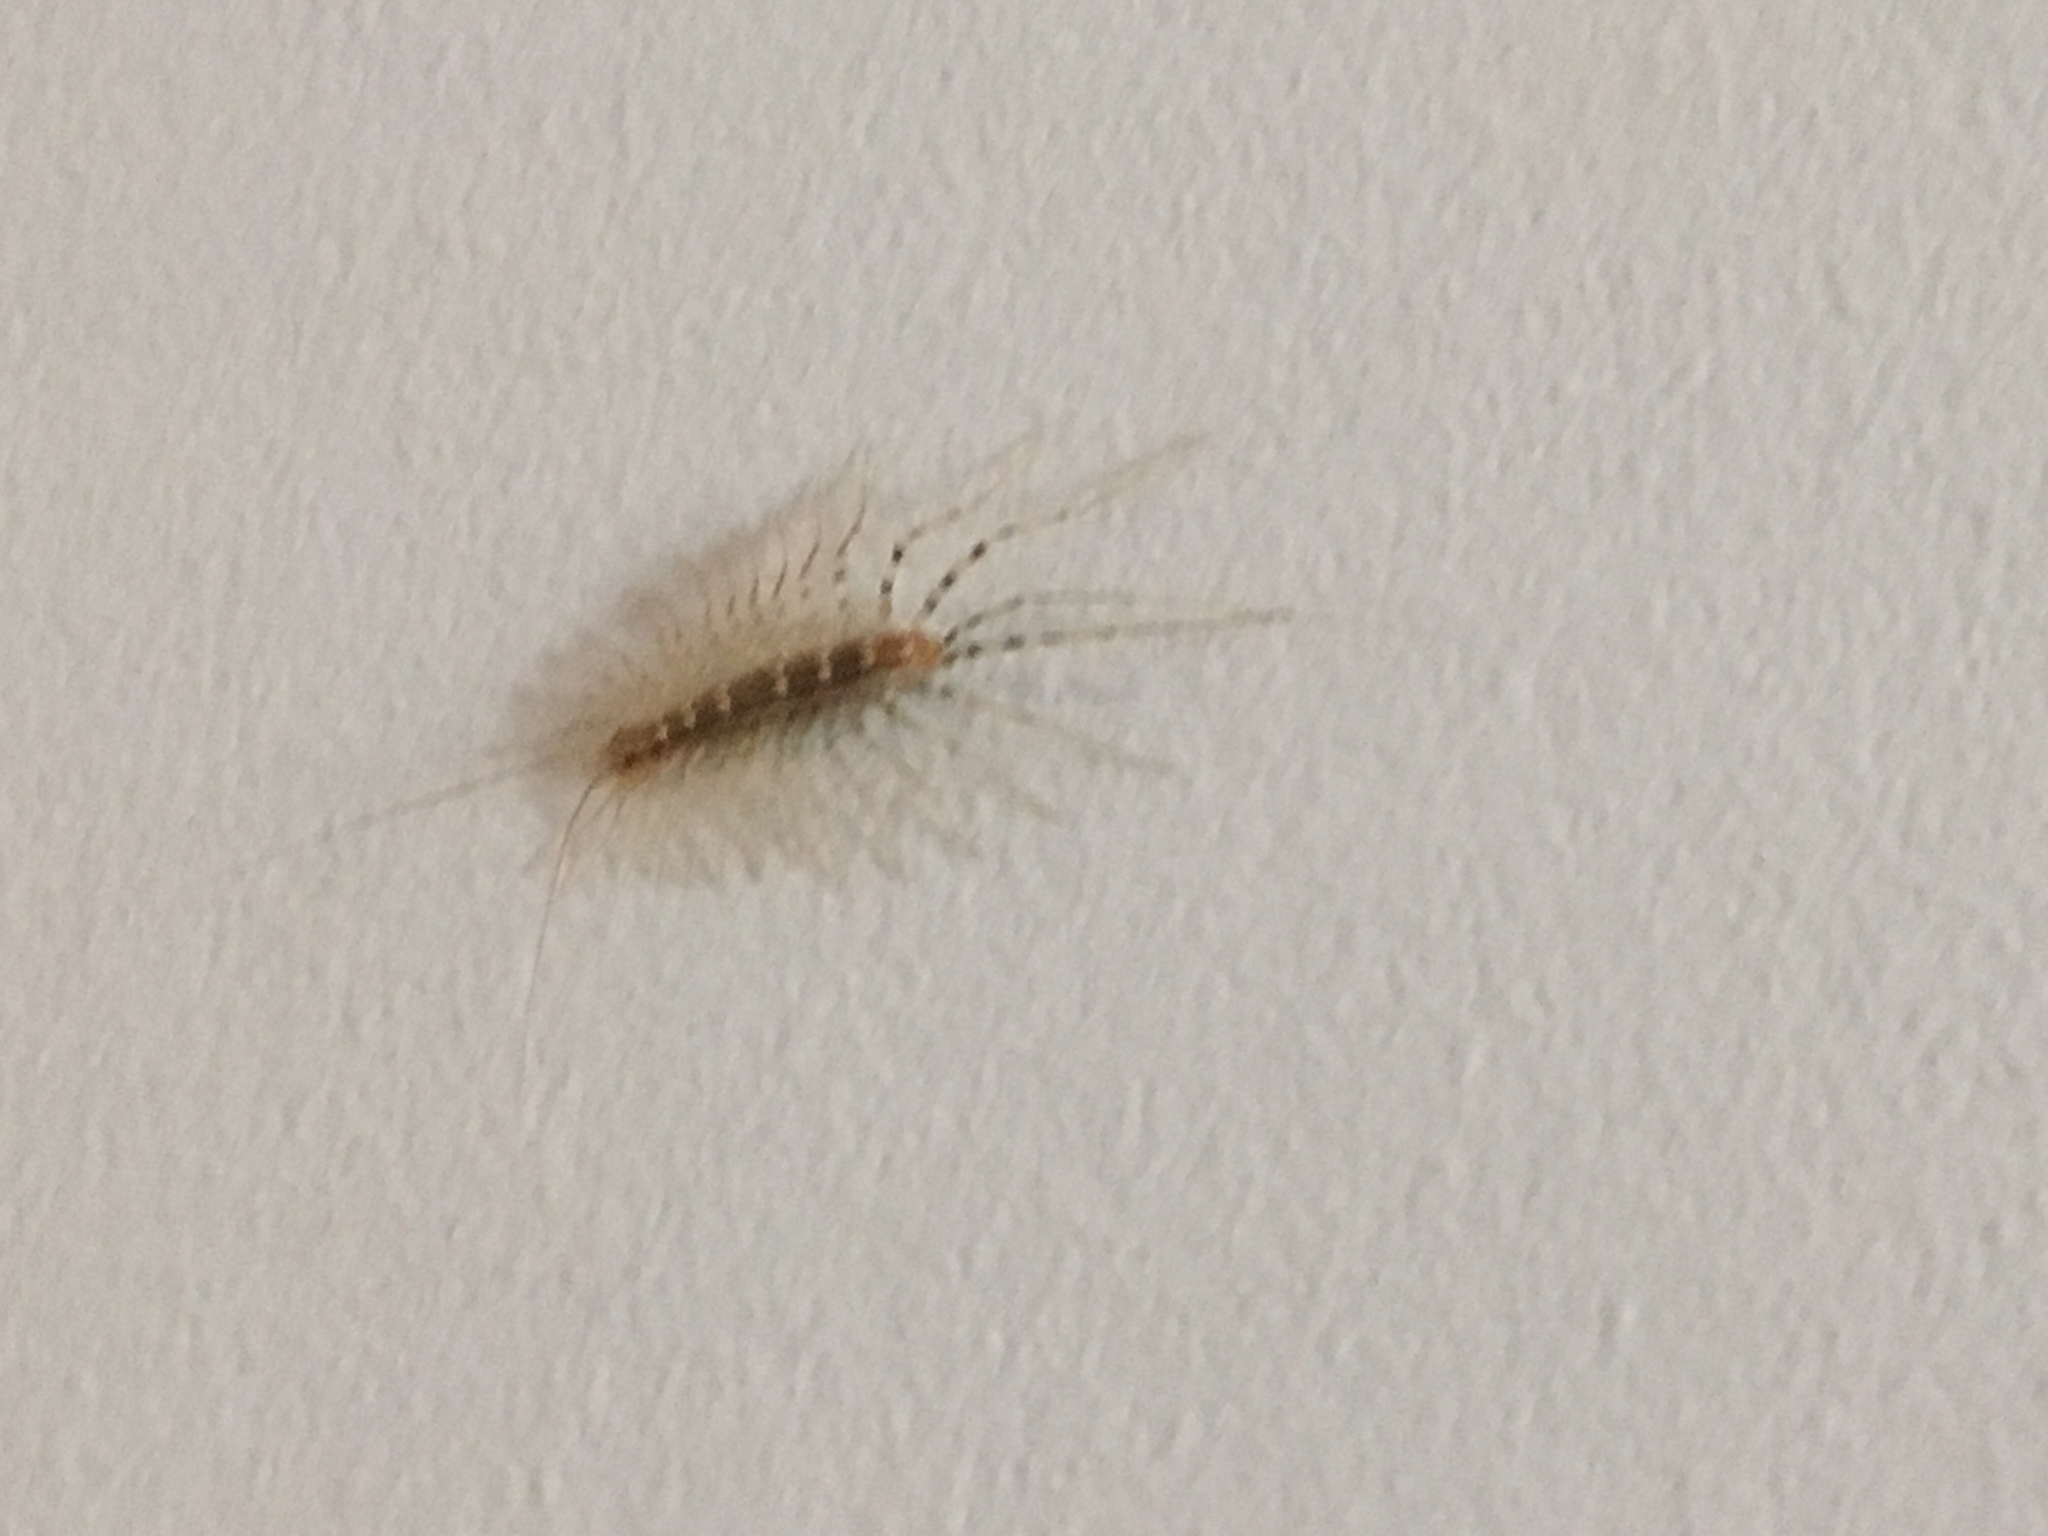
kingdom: Animalia
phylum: Arthropoda
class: Chilopoda
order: Scutigeromorpha
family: Scutigeridae
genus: Scutigera
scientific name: Scutigera coleoptrata
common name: House centipede
